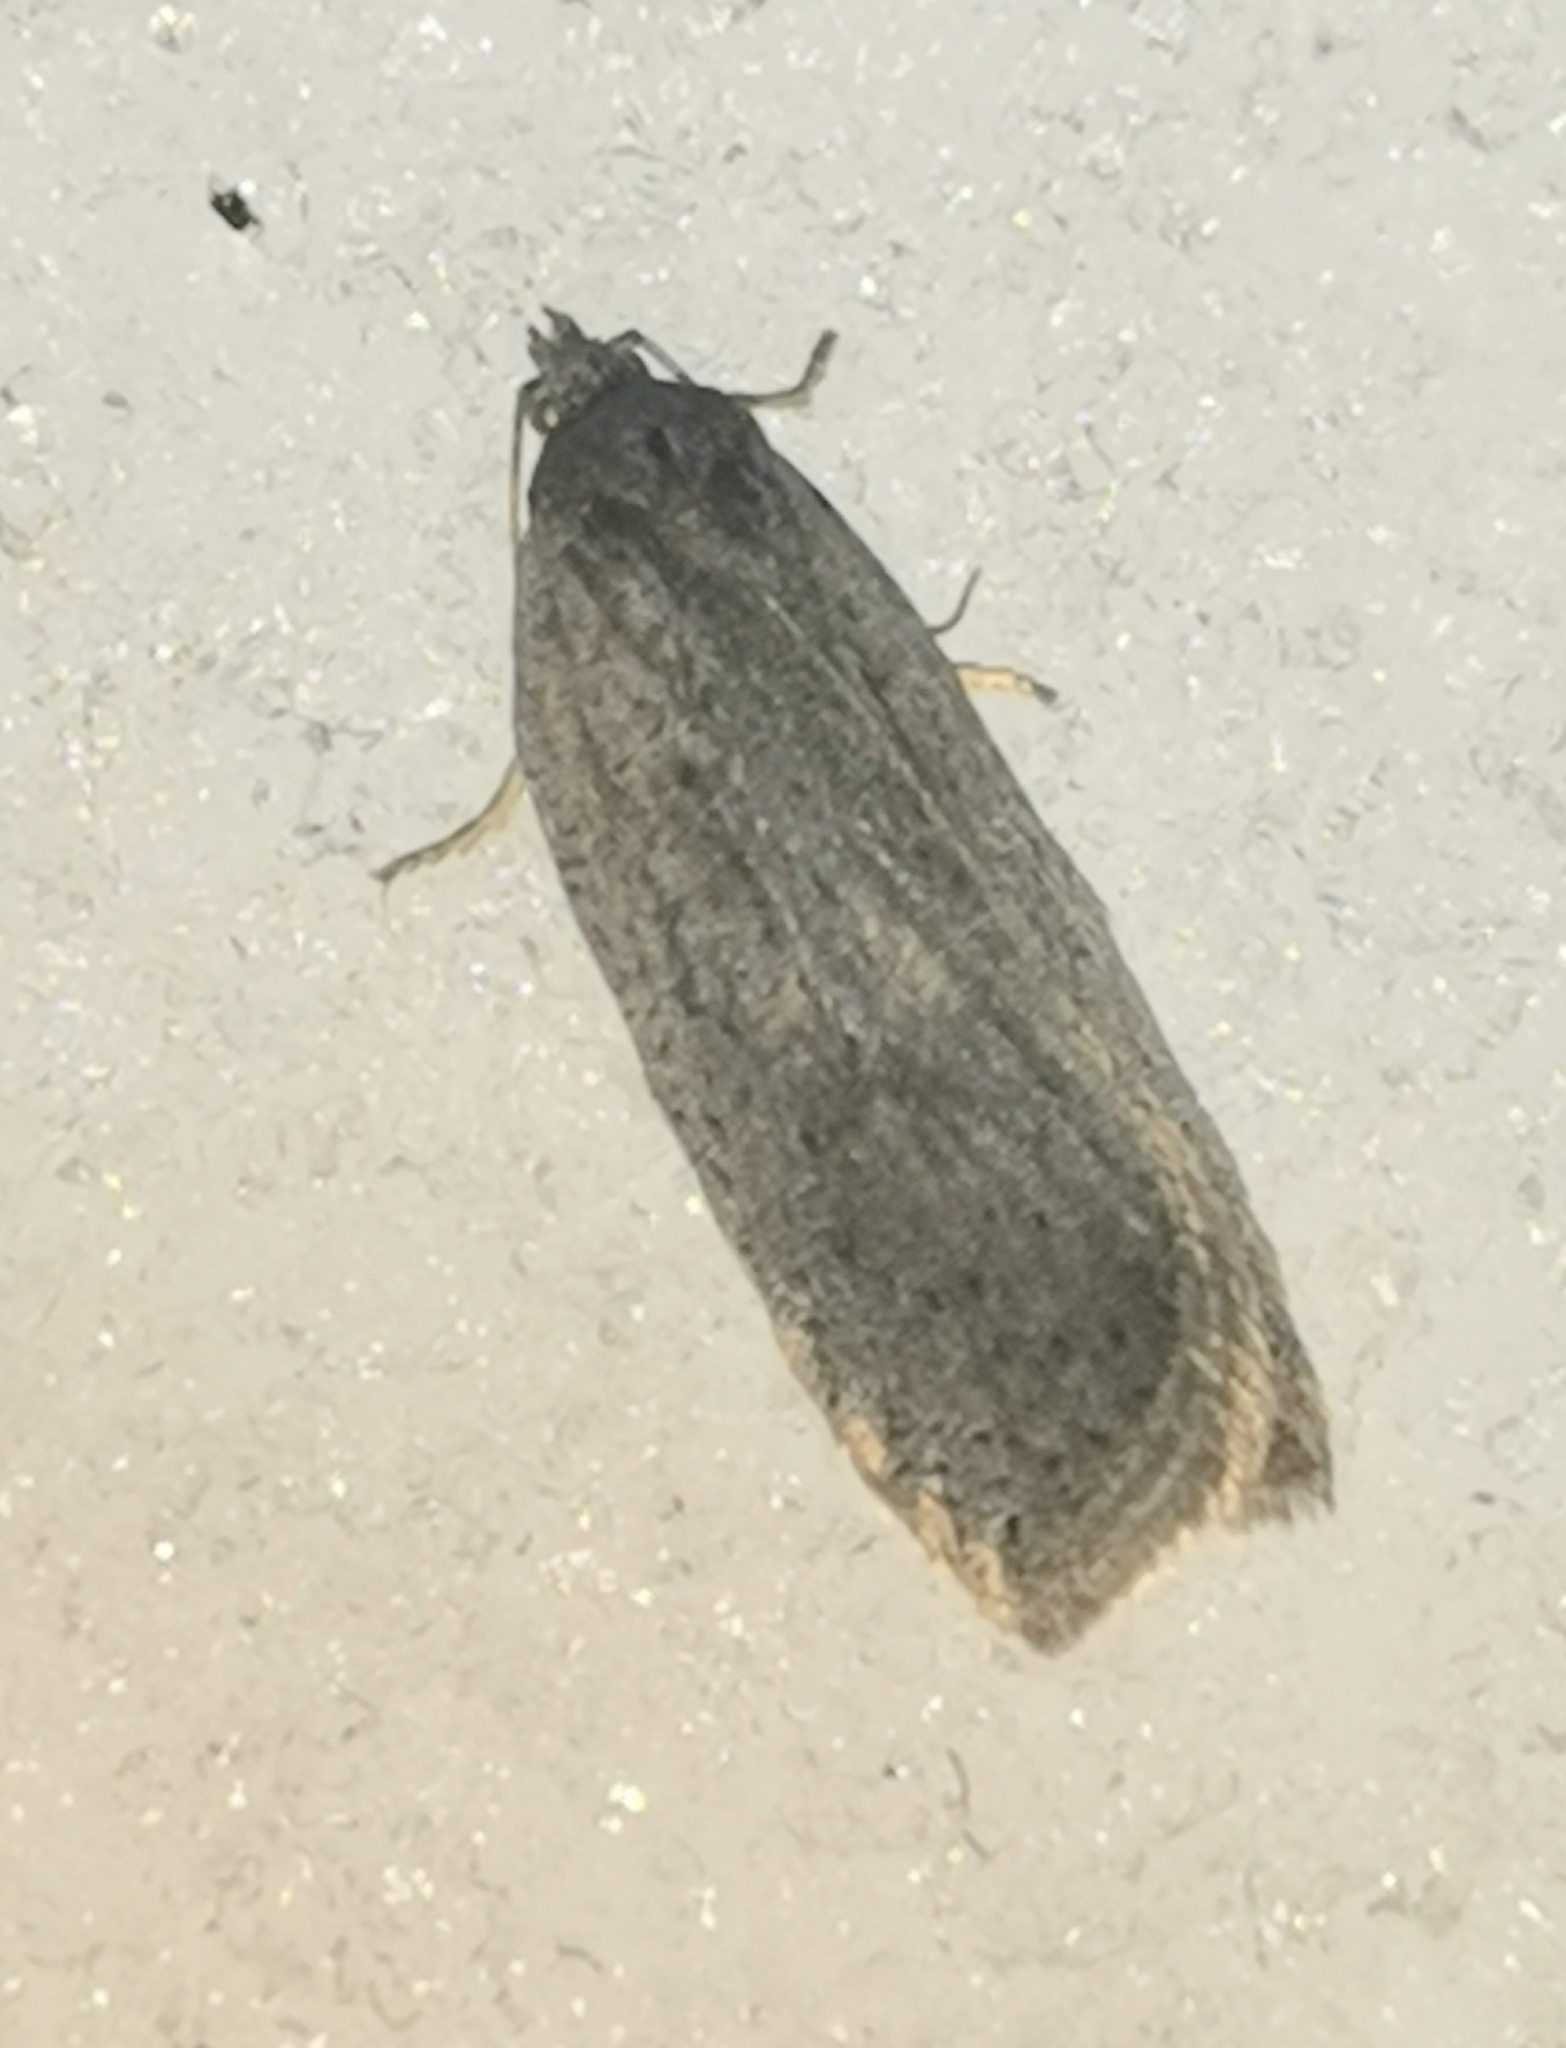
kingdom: Animalia
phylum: Arthropoda
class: Insecta
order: Lepidoptera
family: Tortricidae
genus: Acleris
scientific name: Acleris lipsiana
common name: Northern button
